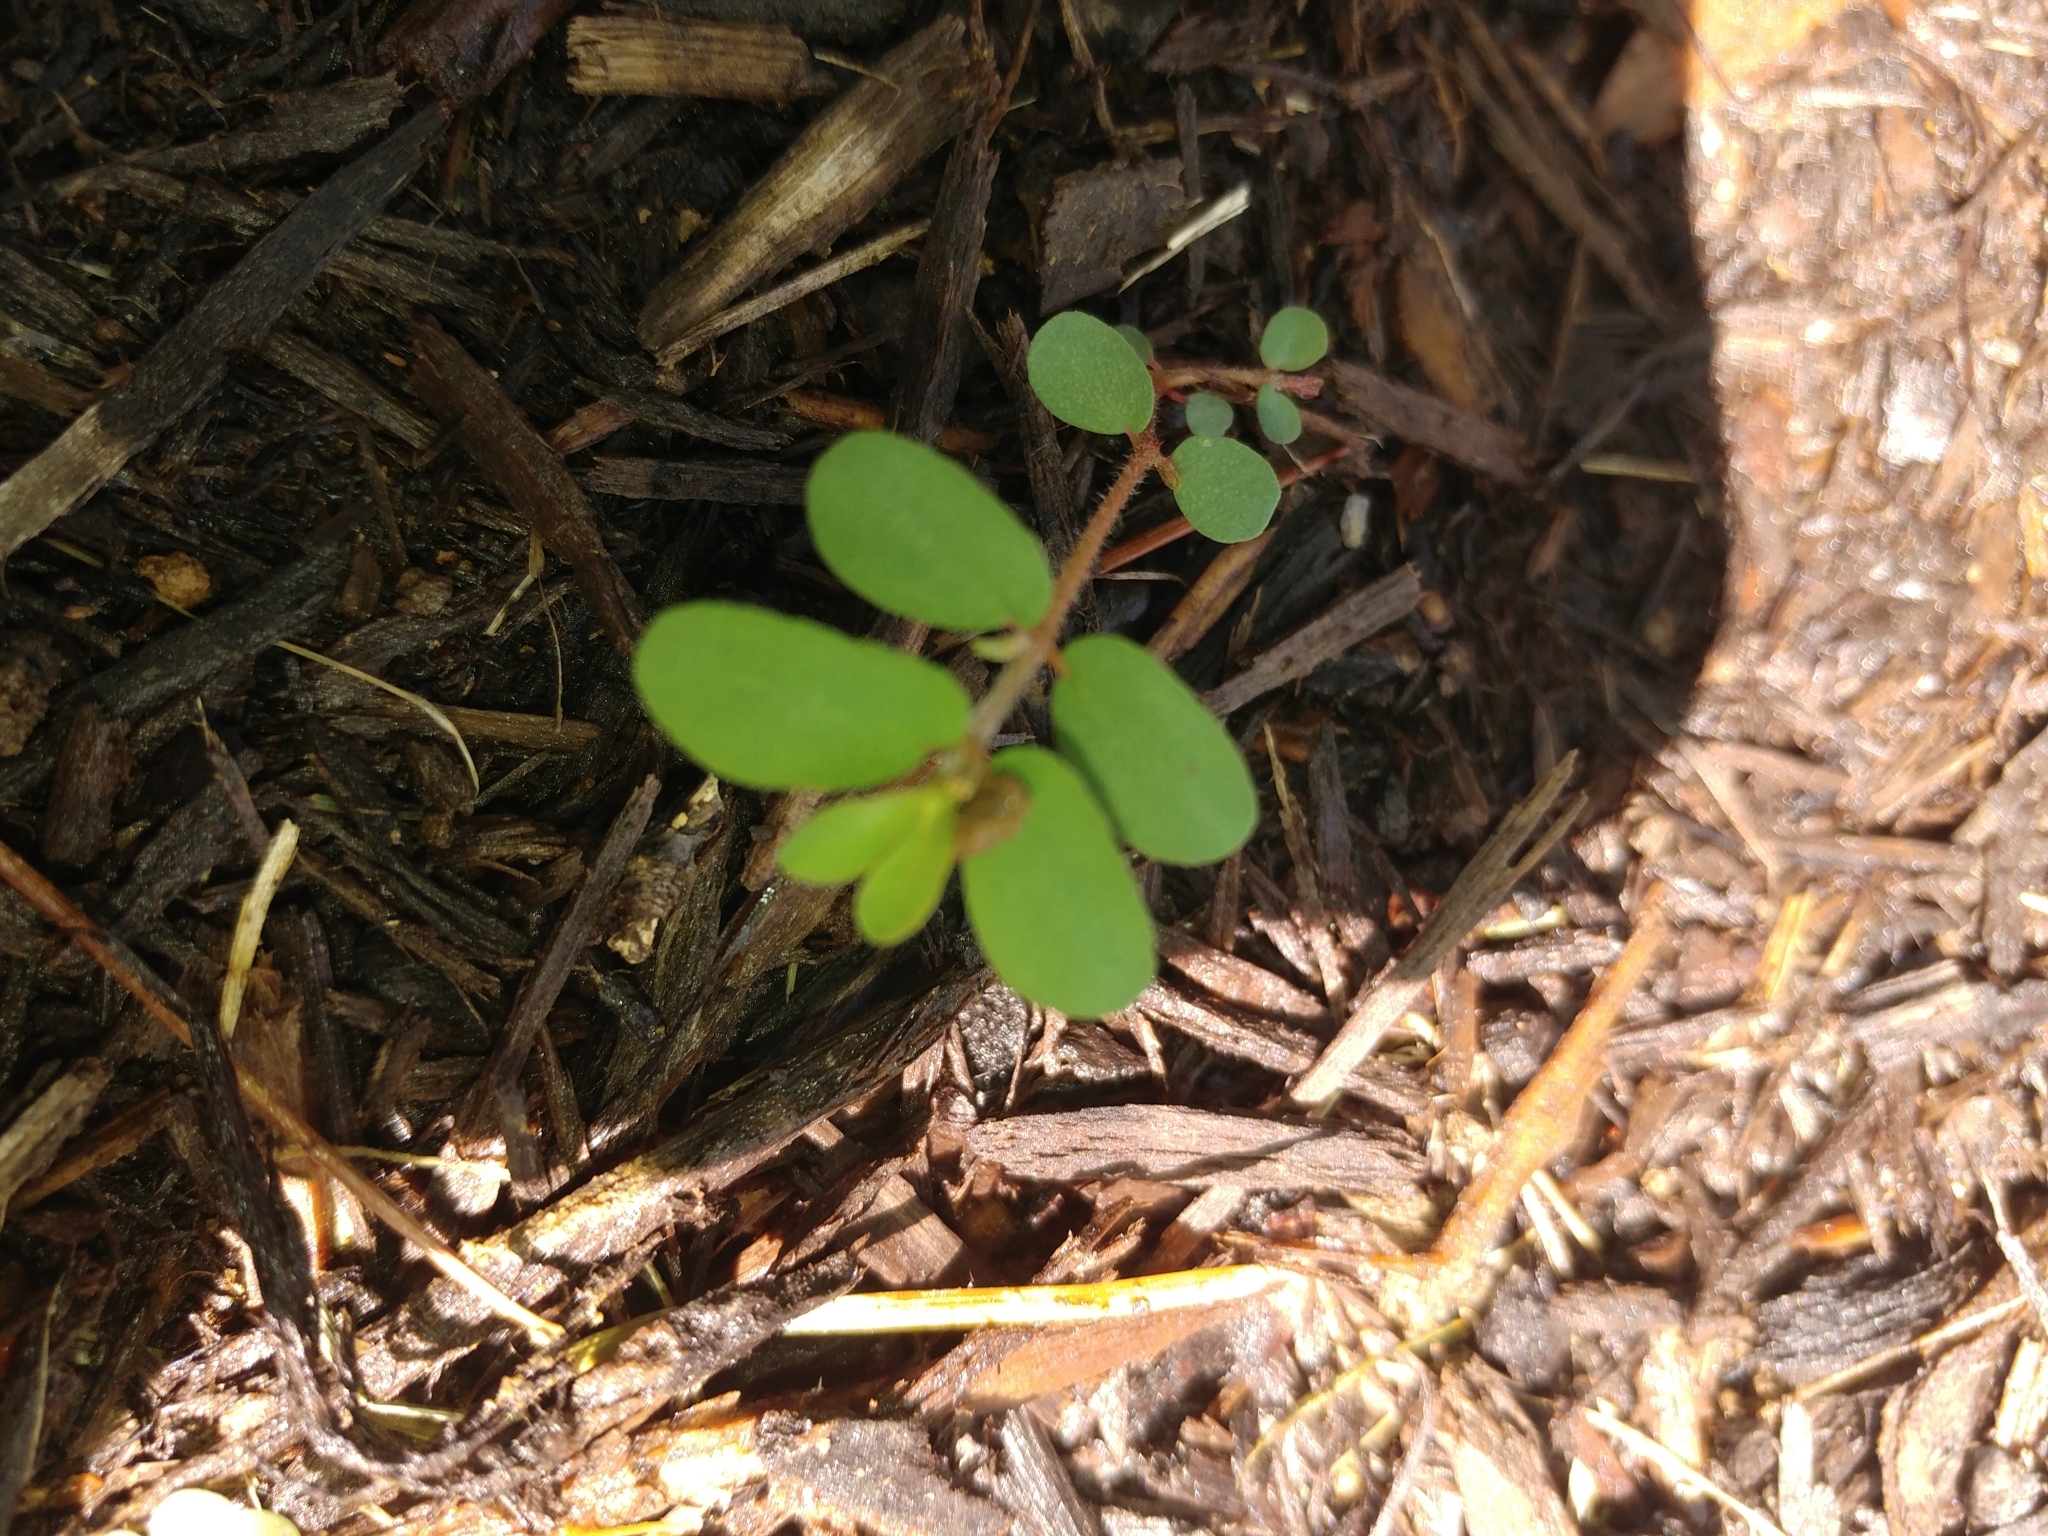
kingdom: Plantae
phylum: Tracheophyta
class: Magnoliopsida
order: Malpighiales
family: Euphorbiaceae
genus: Euphorbia
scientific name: Euphorbia maculata
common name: Spotted spurge
